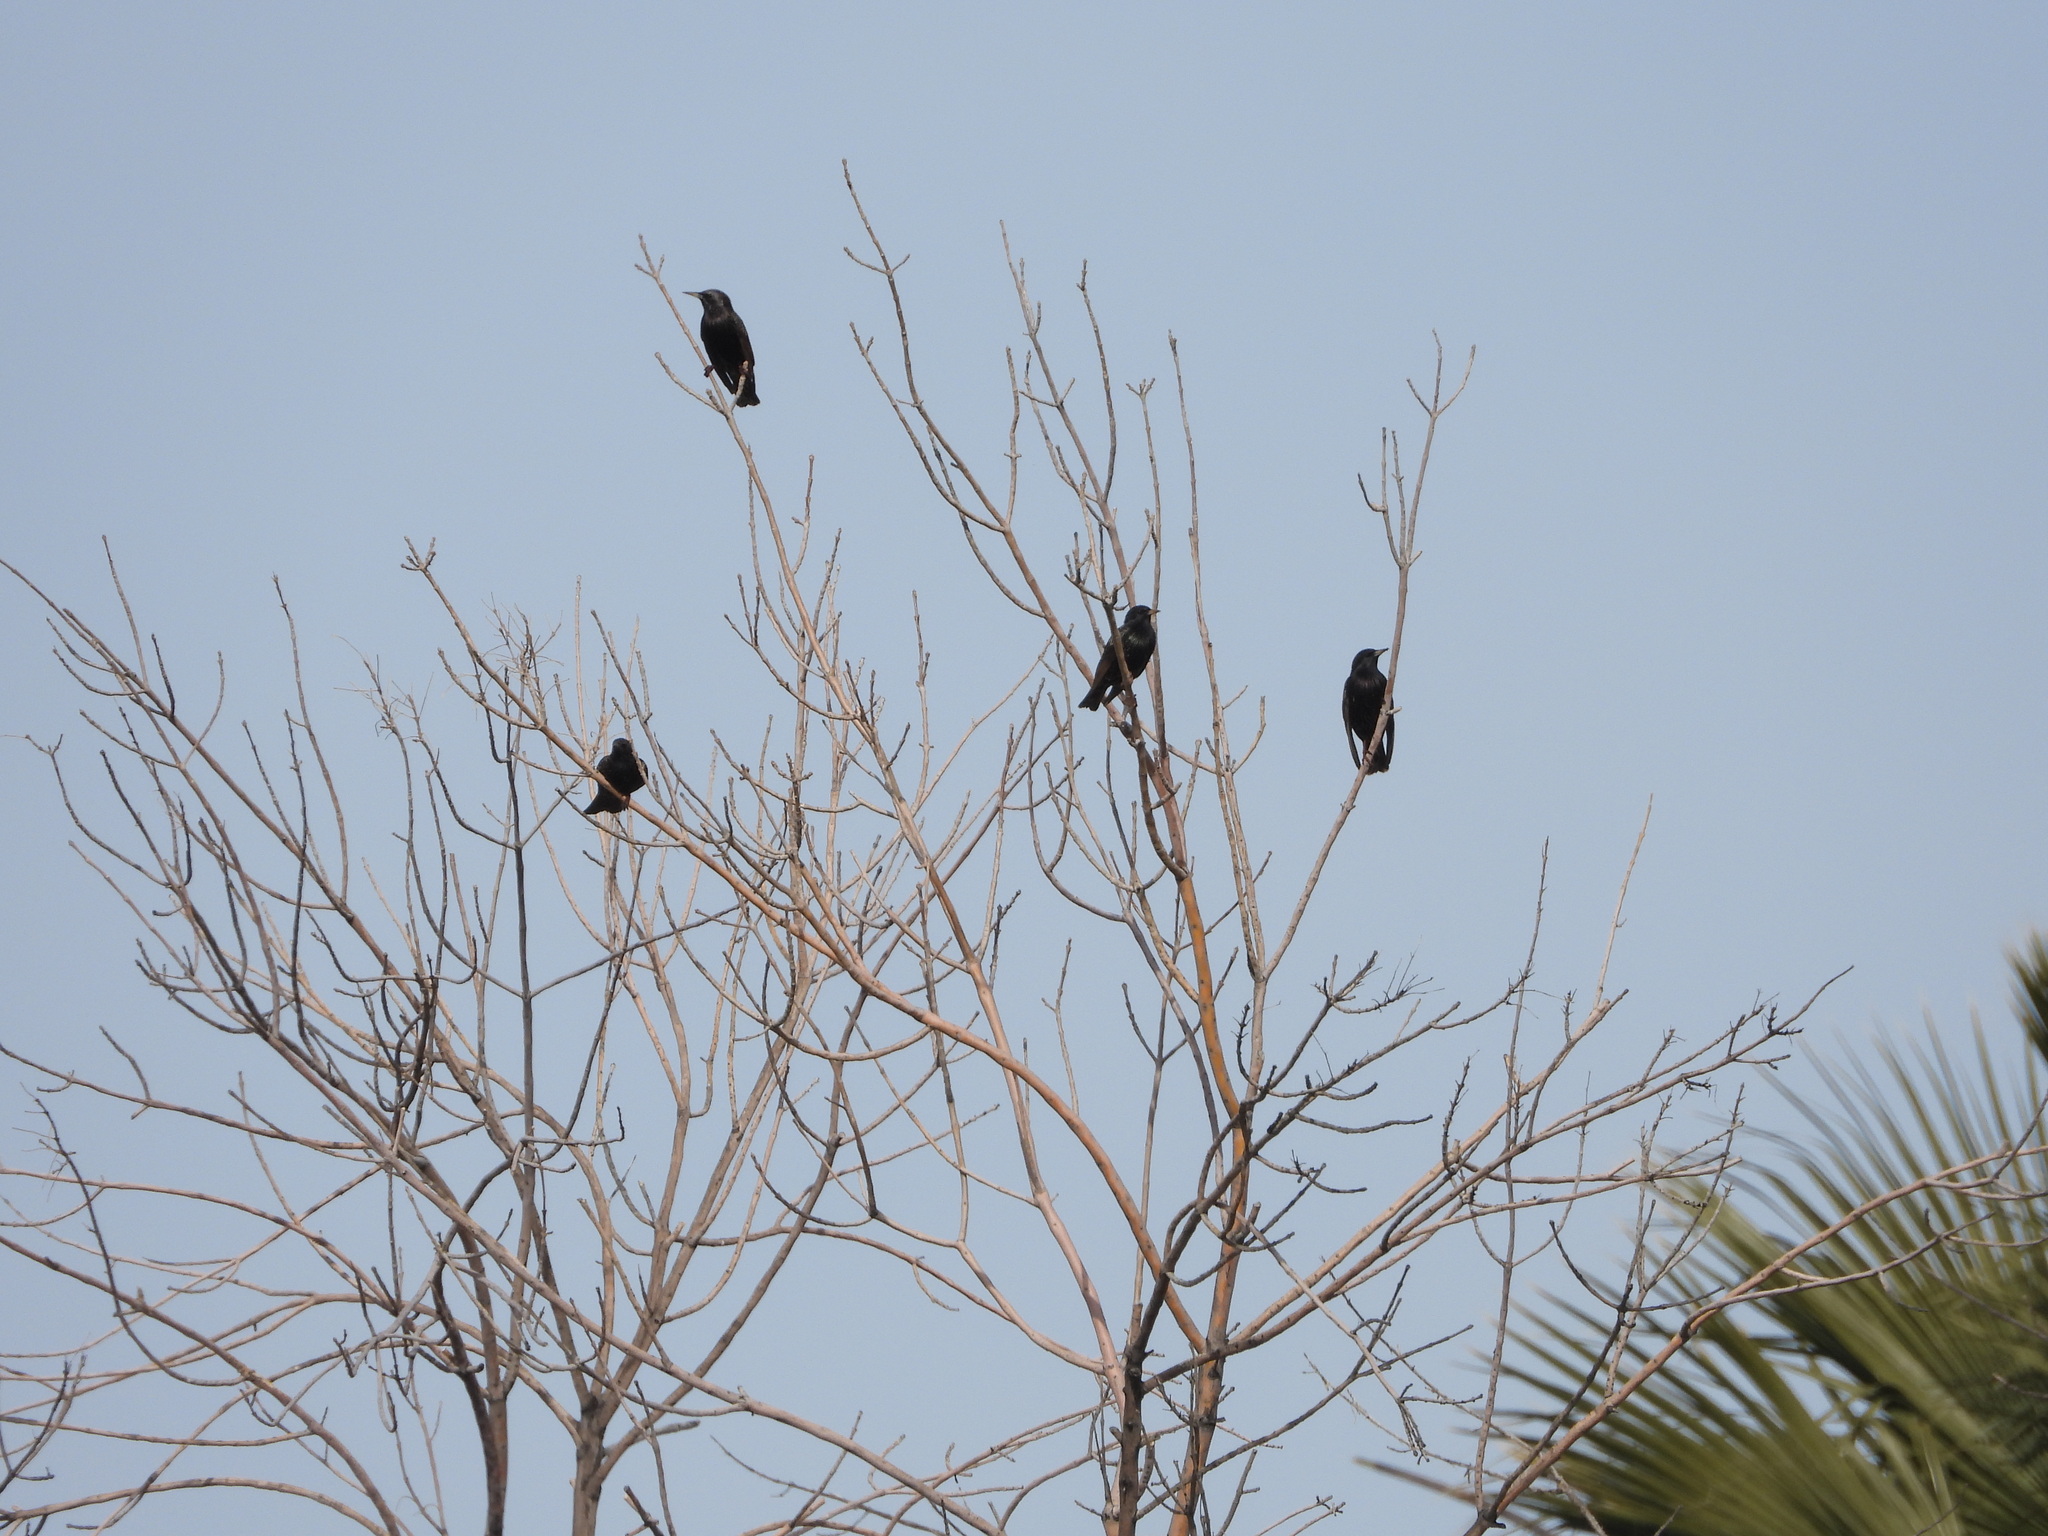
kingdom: Animalia
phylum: Chordata
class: Aves
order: Passeriformes
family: Sturnidae
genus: Sturnus
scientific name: Sturnus vulgaris
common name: Common starling
